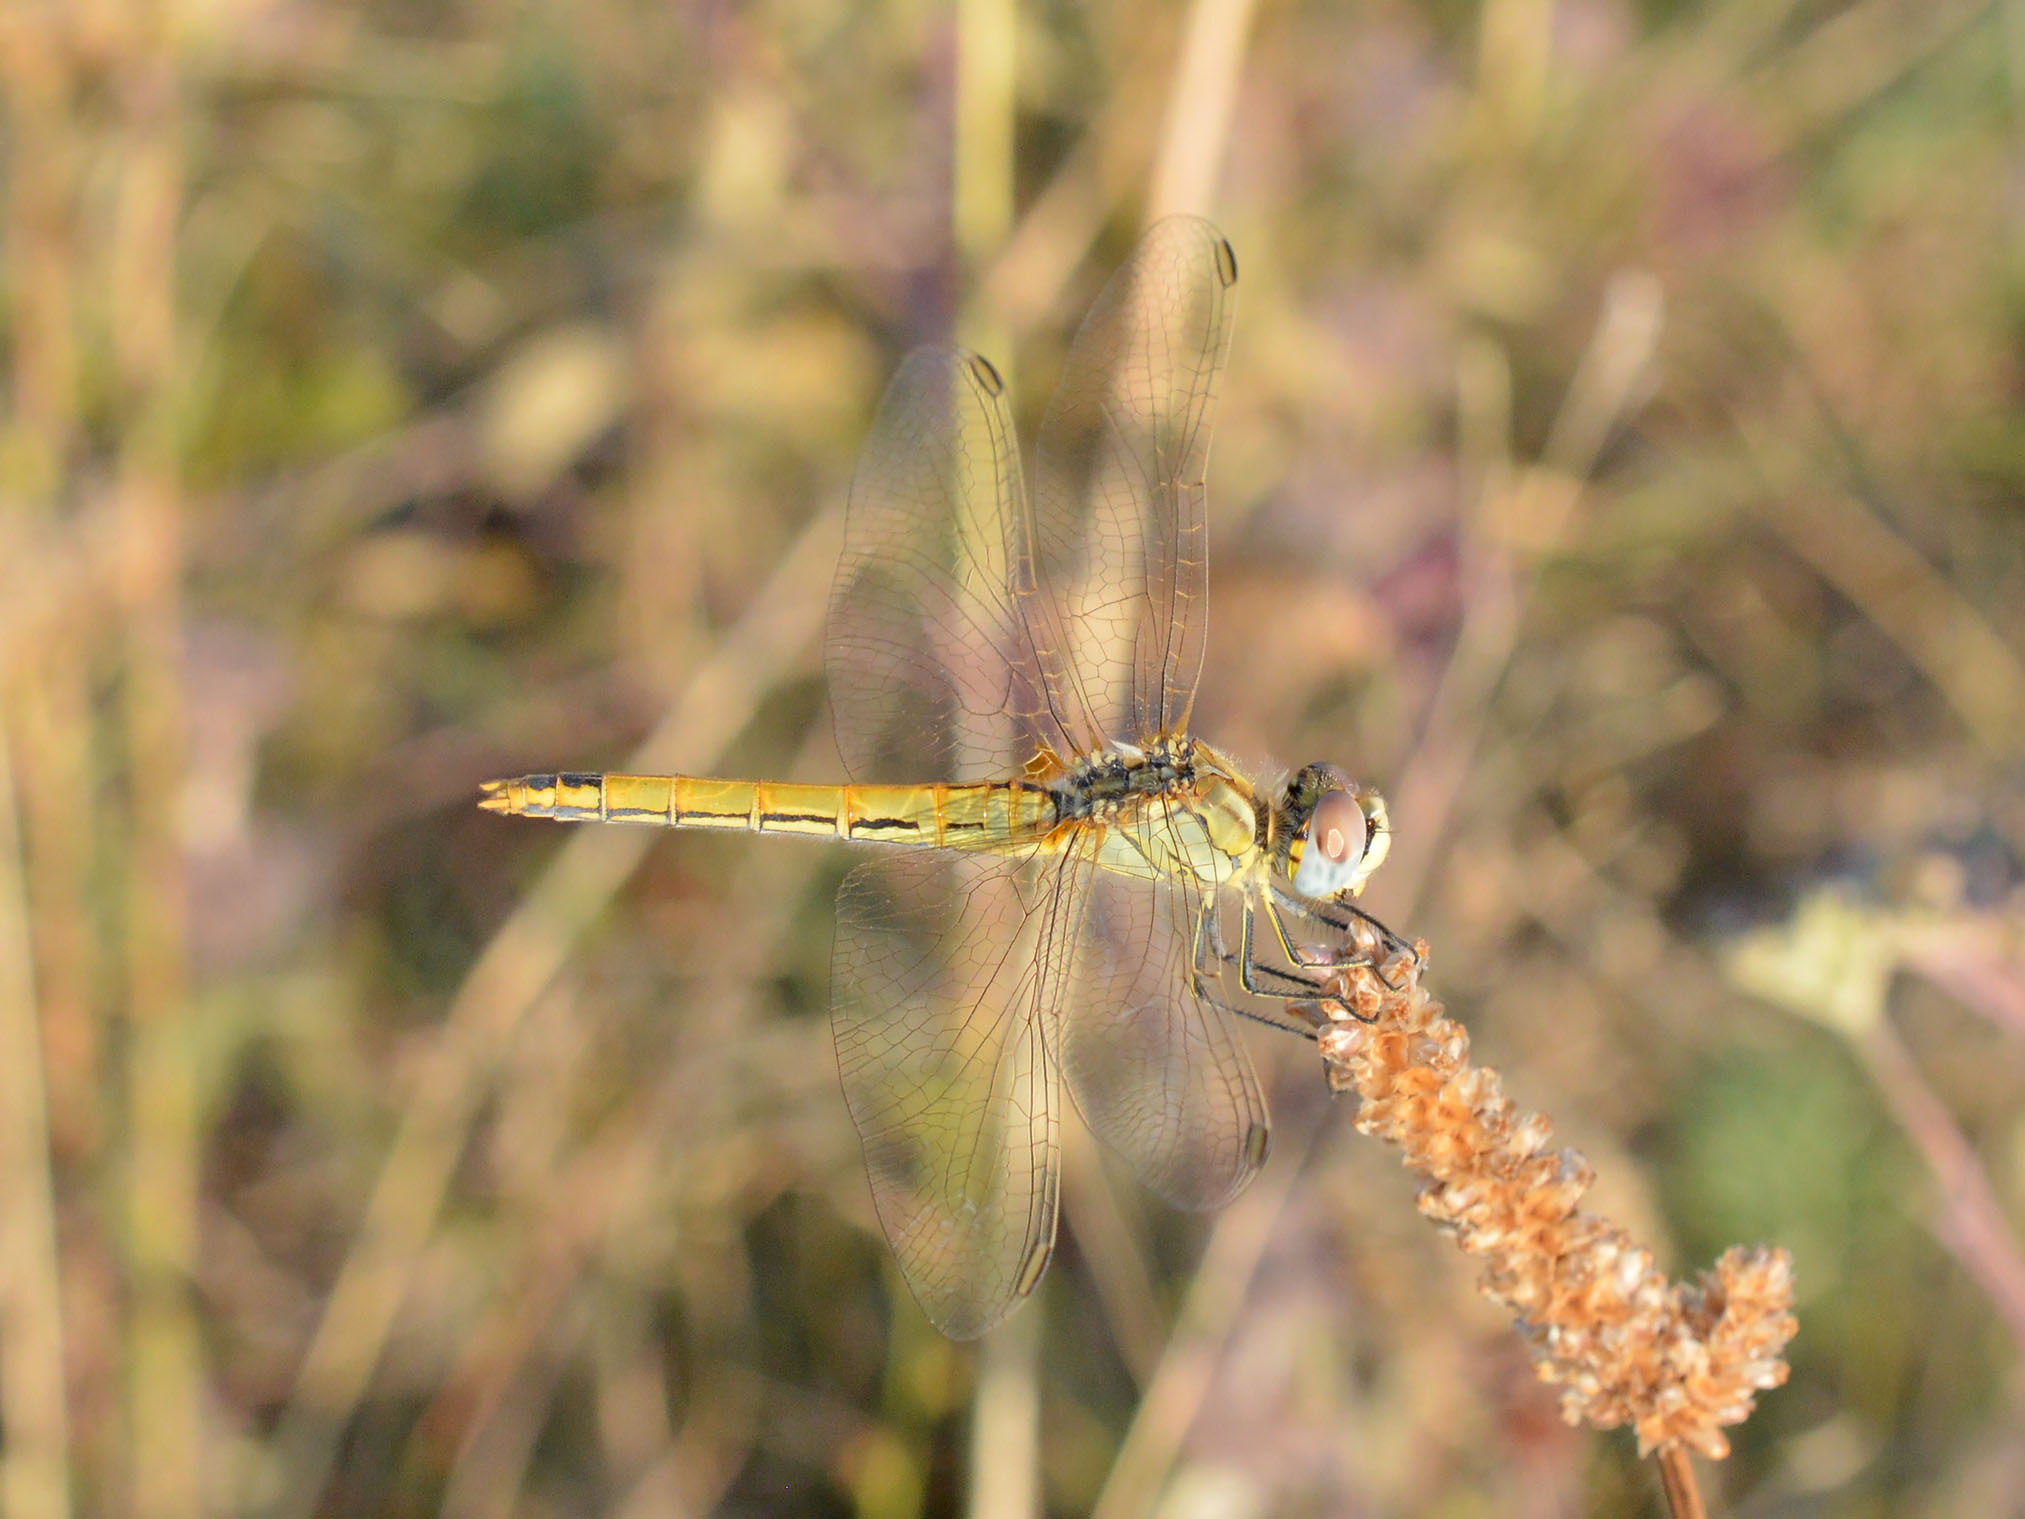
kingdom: Animalia
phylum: Arthropoda
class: Insecta
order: Odonata
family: Libellulidae
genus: Sympetrum
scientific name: Sympetrum fonscolombii
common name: Red-veined darter
